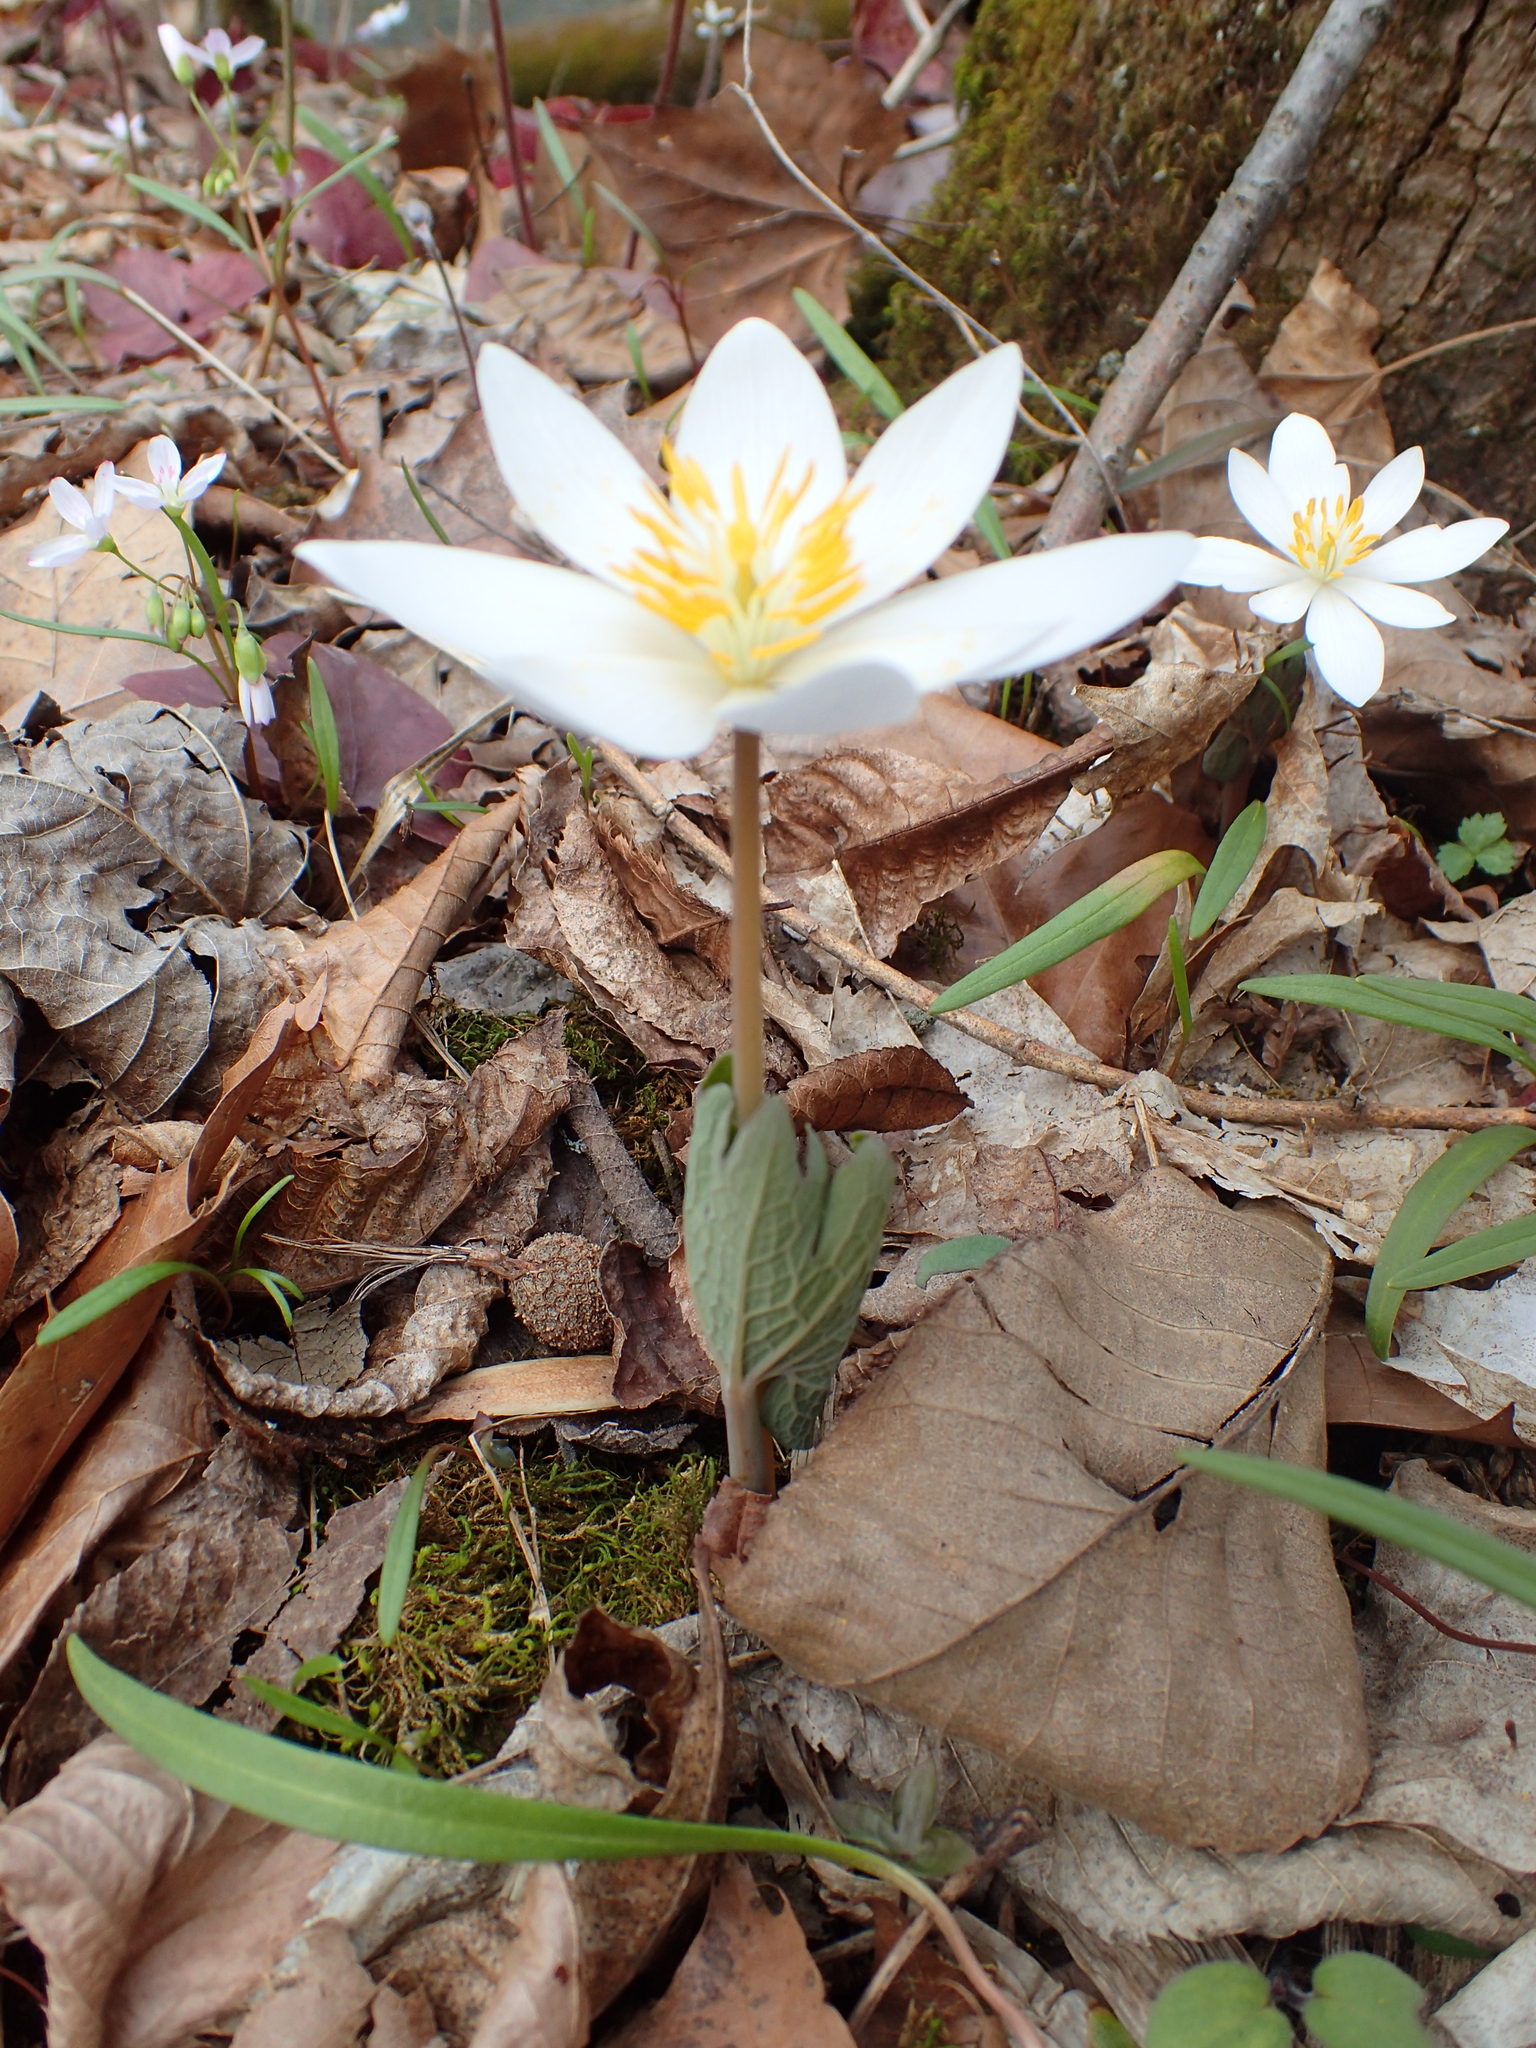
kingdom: Plantae
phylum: Tracheophyta
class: Magnoliopsida
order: Ranunculales
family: Papaveraceae
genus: Sanguinaria
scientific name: Sanguinaria canadensis
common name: Bloodroot
